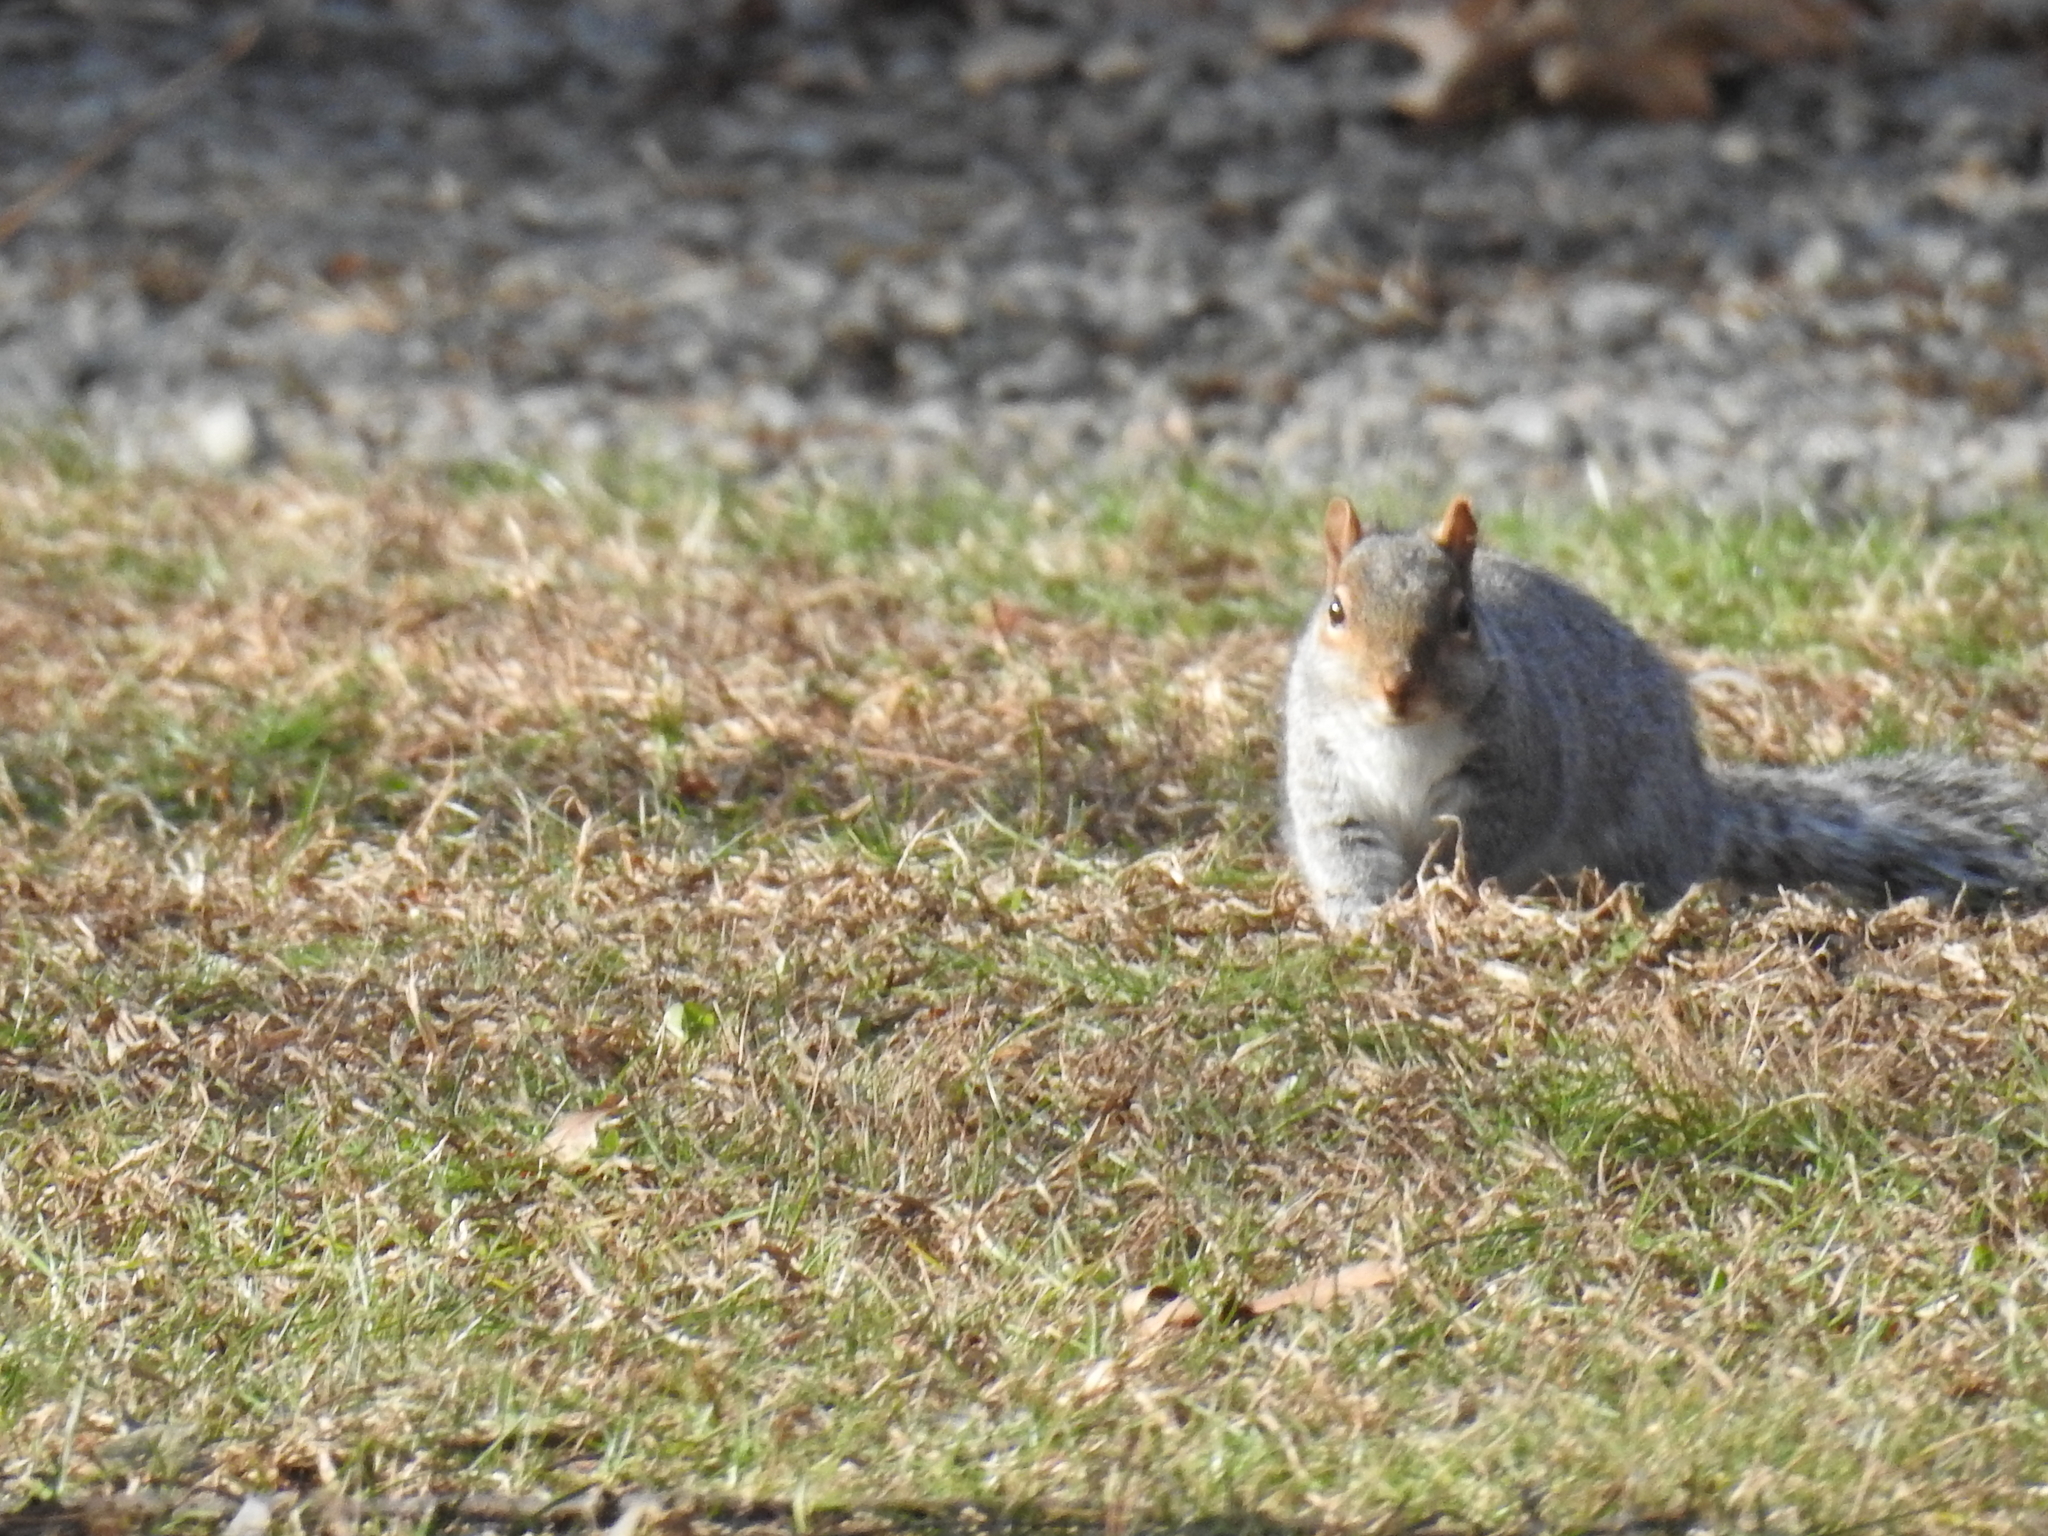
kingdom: Animalia
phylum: Chordata
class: Mammalia
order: Rodentia
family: Sciuridae
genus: Sciurus
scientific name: Sciurus carolinensis
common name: Eastern gray squirrel
